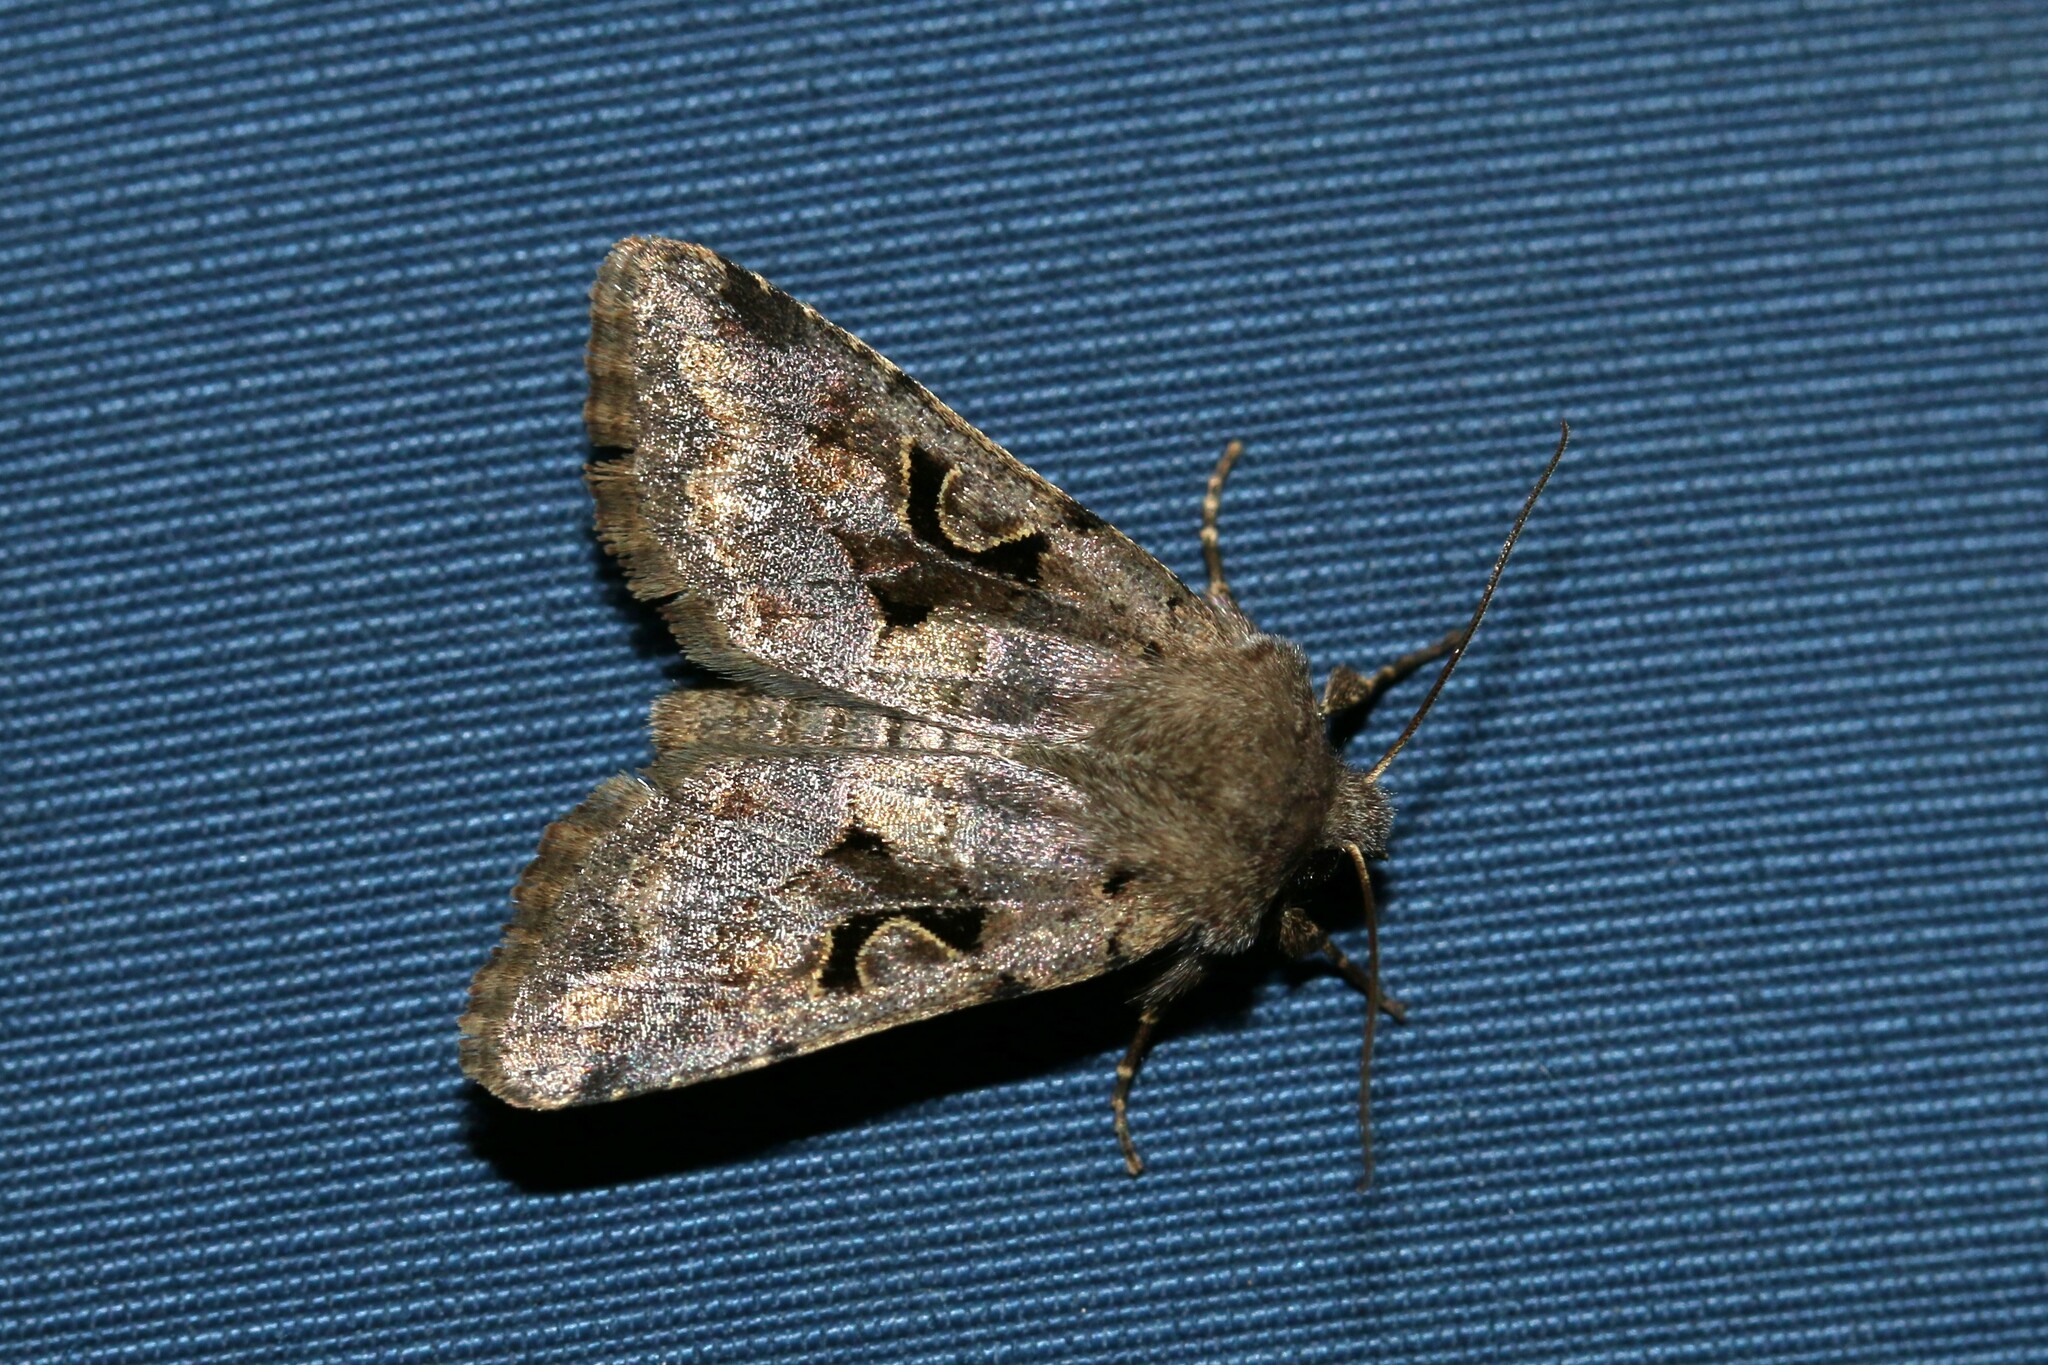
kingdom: Animalia
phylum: Arthropoda
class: Insecta
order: Lepidoptera
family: Noctuidae
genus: Orthosia
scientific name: Orthosia gothica
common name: Hebrew character
